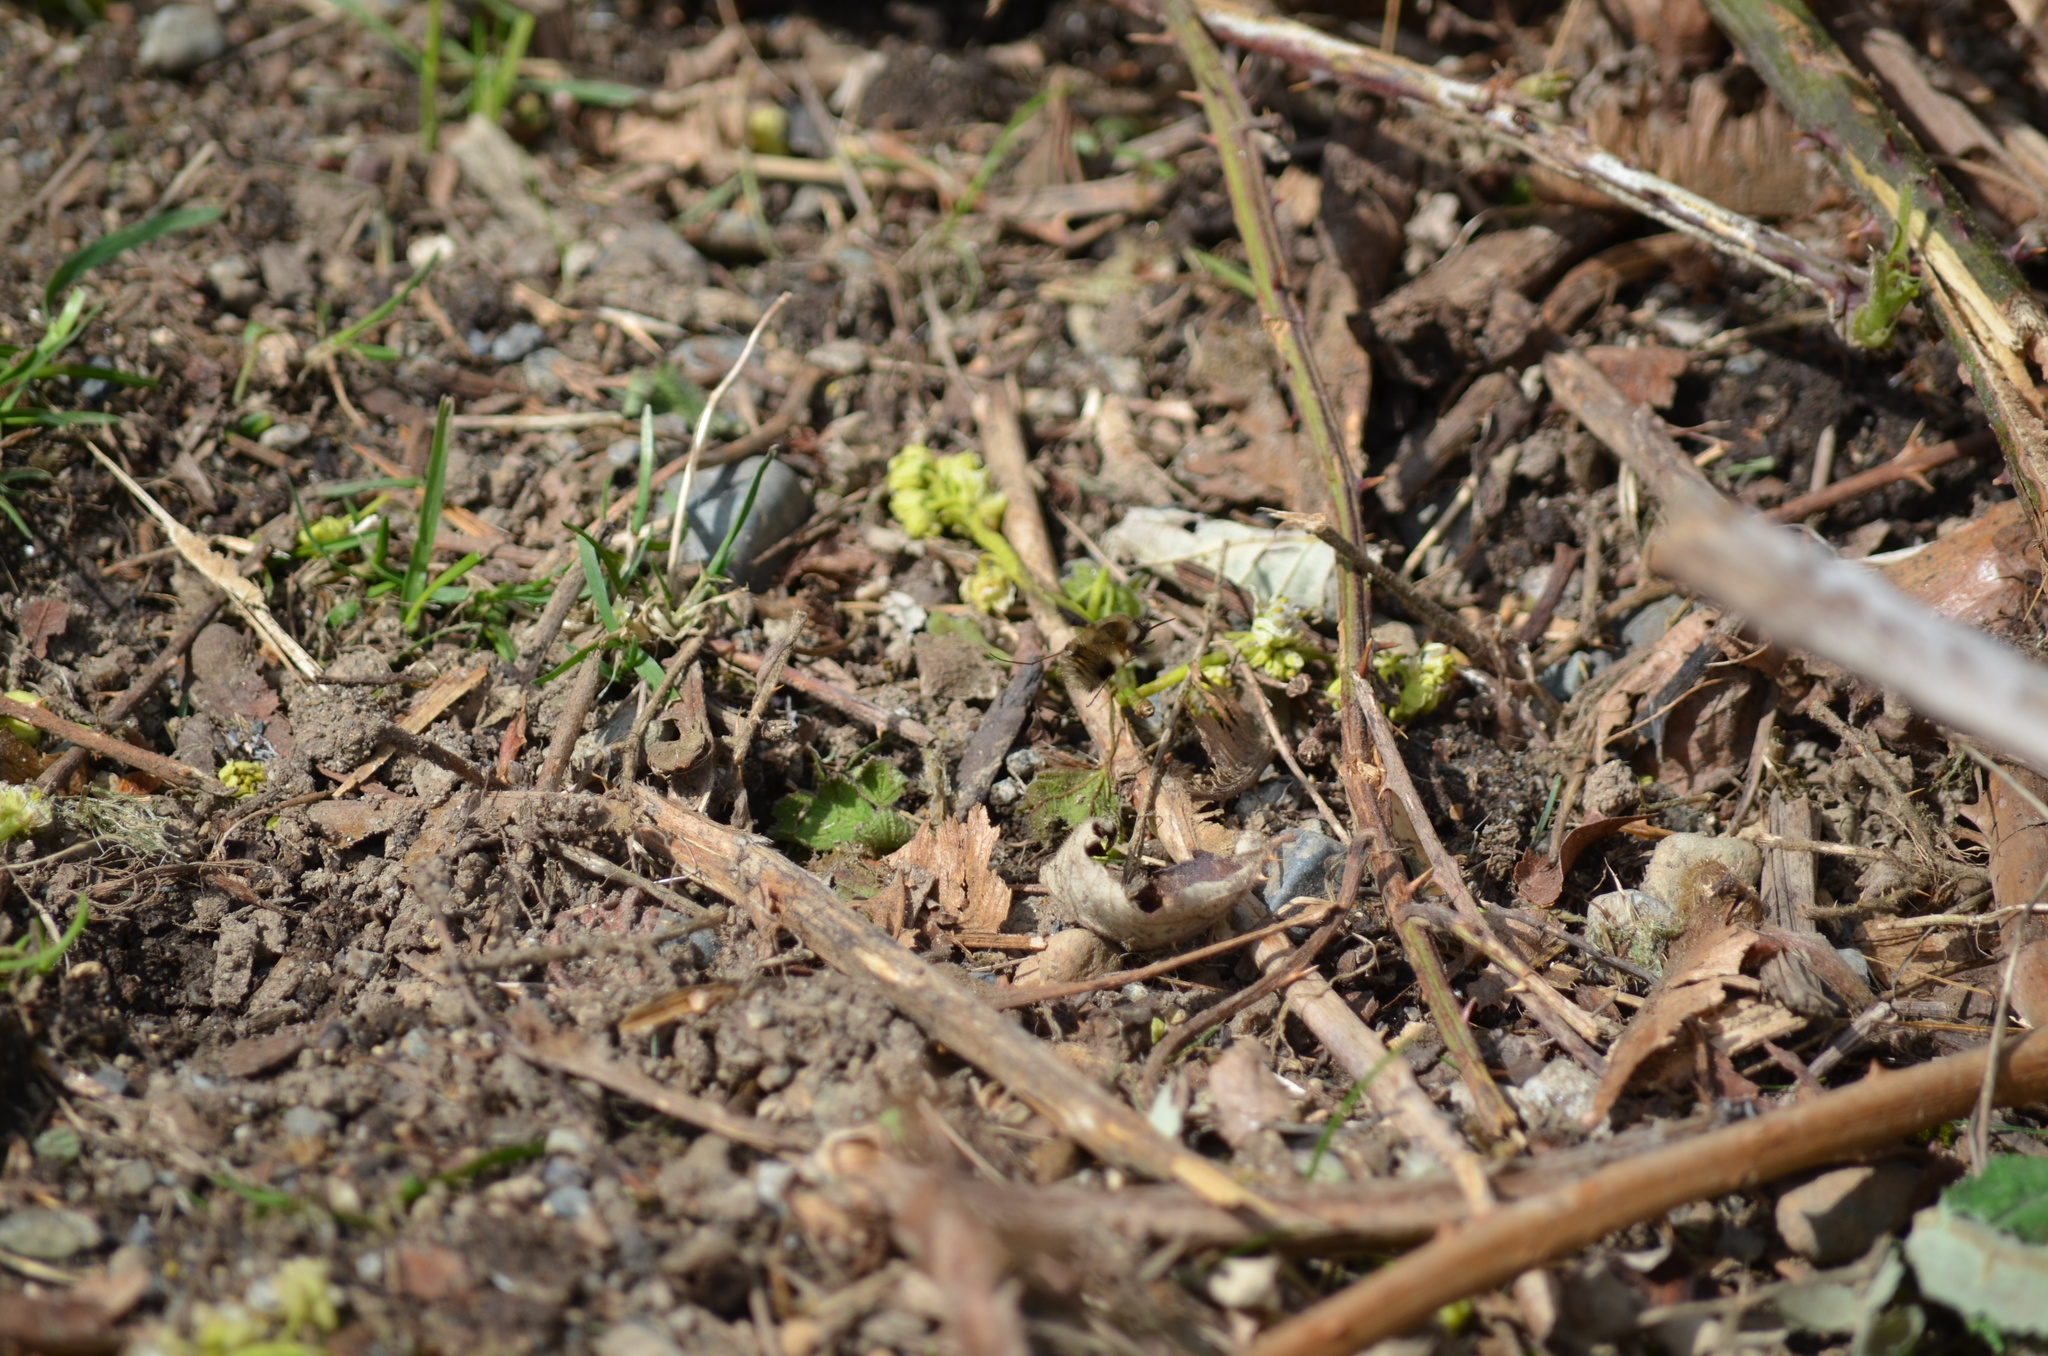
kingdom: Animalia
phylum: Arthropoda
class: Insecta
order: Diptera
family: Bombyliidae
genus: Bombylius
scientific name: Bombylius major
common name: Bee fly
